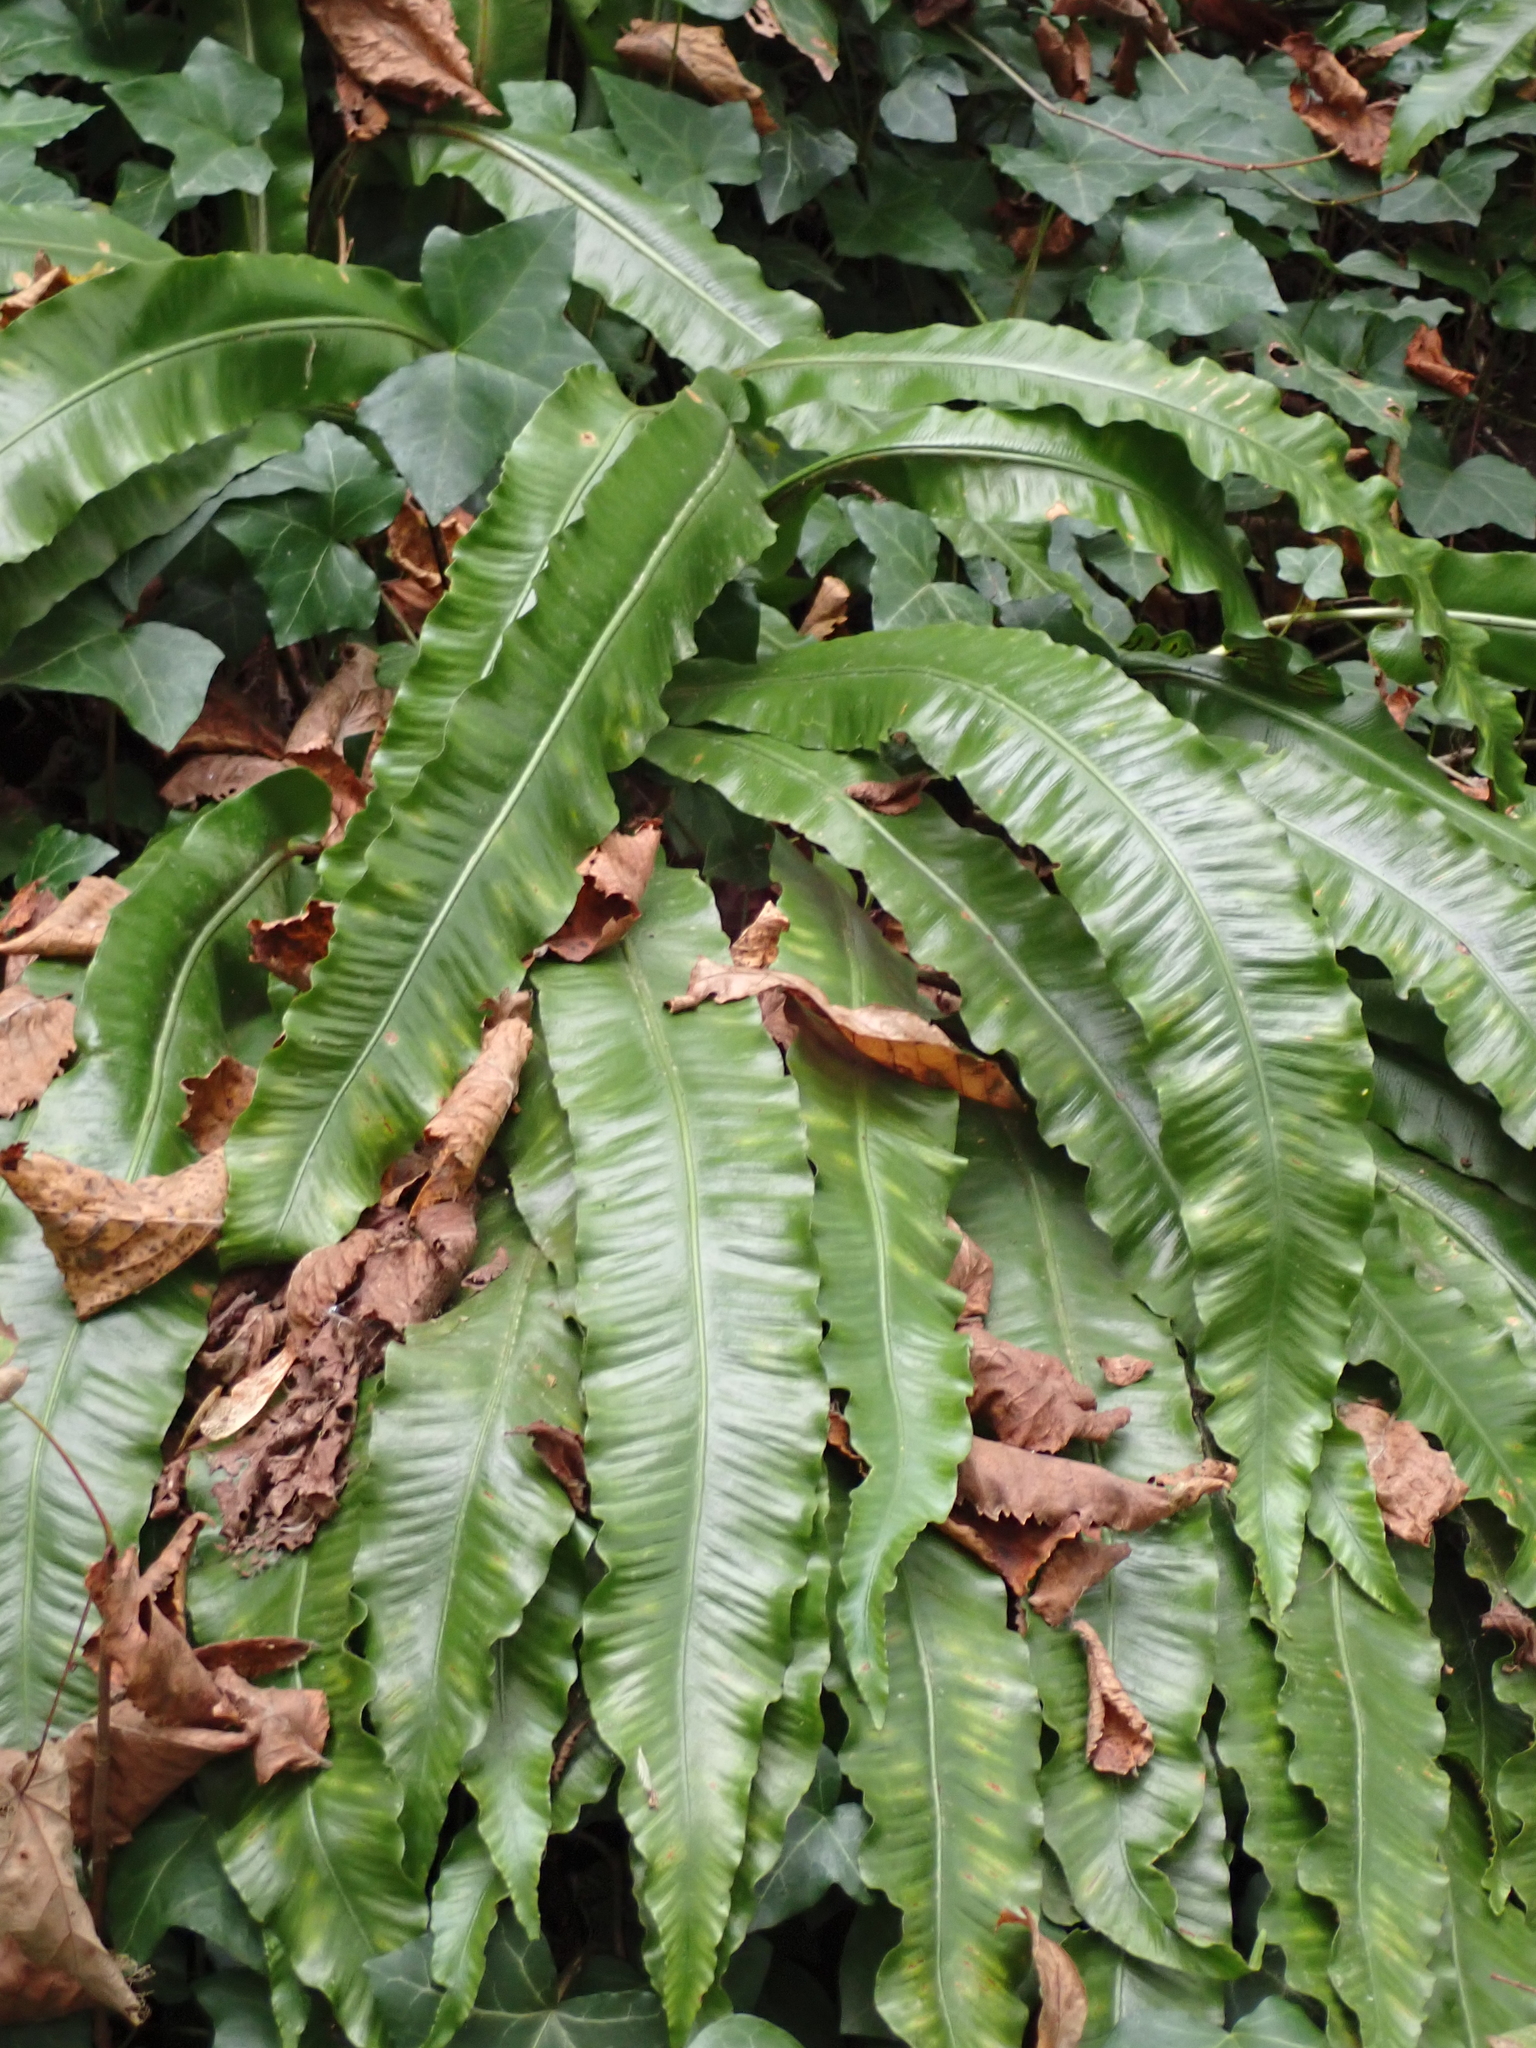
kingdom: Plantae
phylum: Tracheophyta
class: Polypodiopsida
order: Polypodiales
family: Aspleniaceae
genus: Asplenium
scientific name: Asplenium scolopendrium
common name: Hart's-tongue fern
